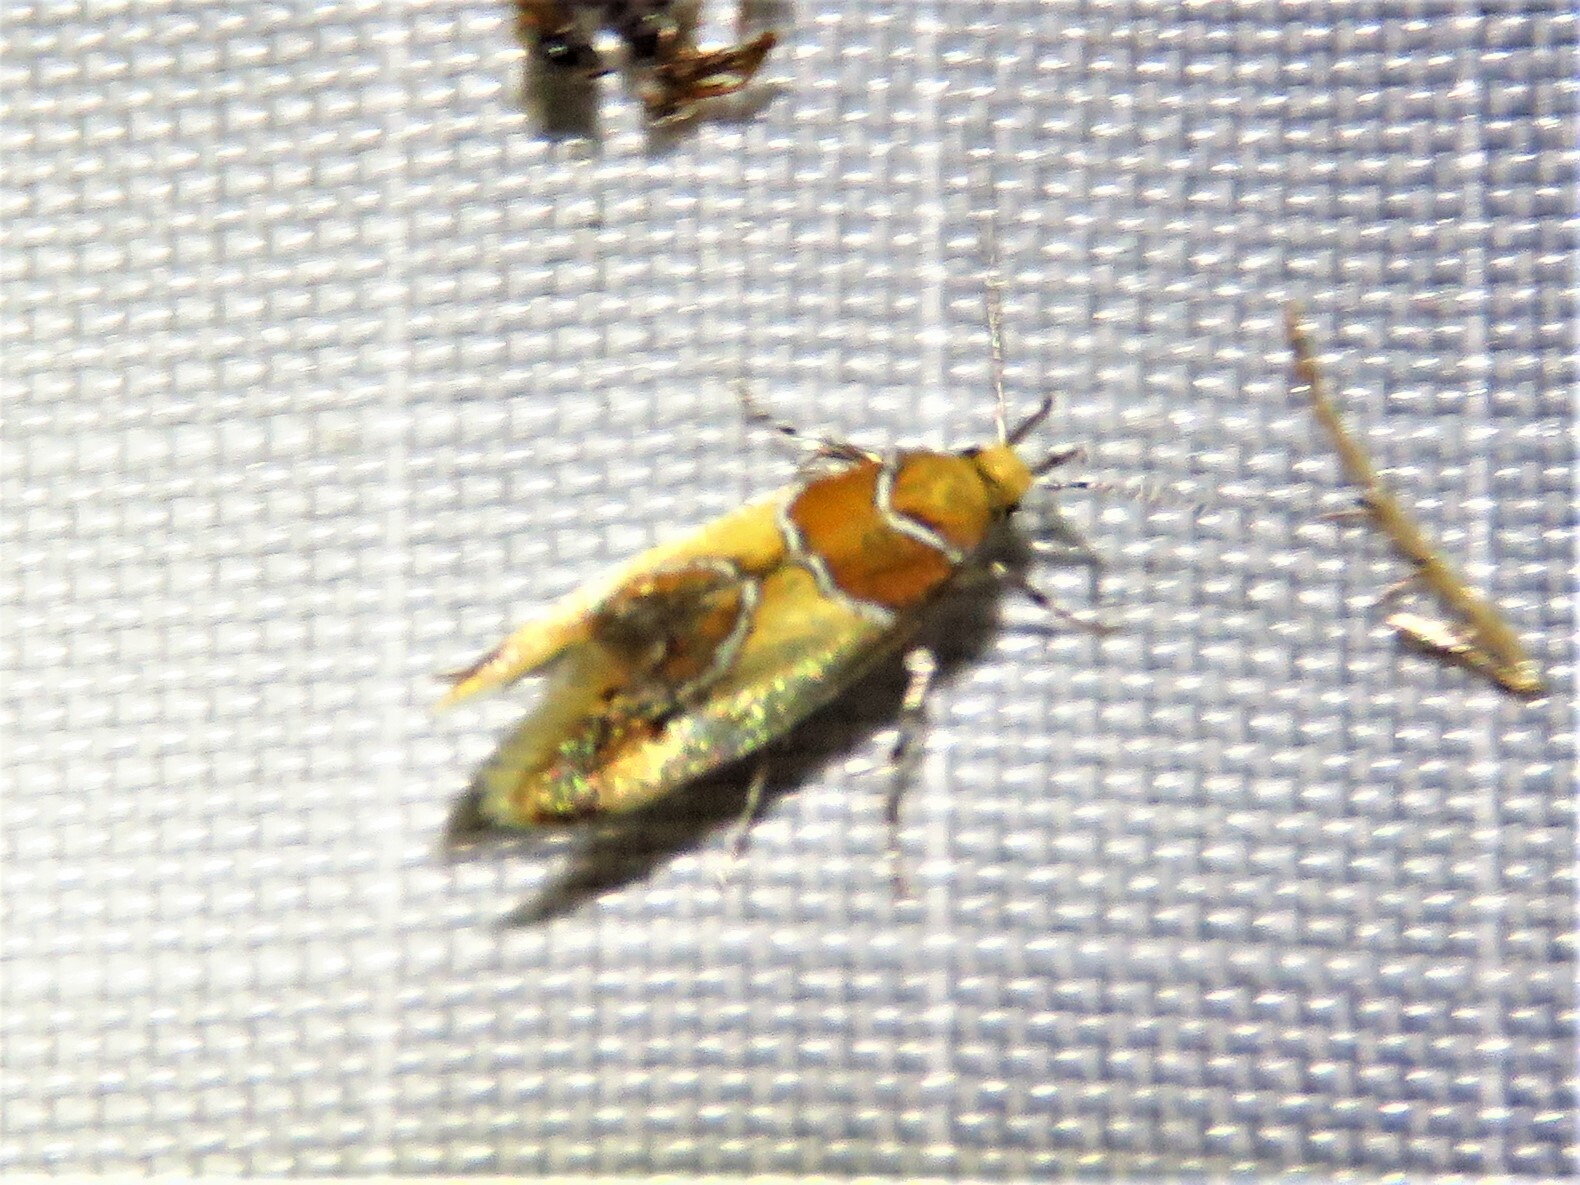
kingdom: Animalia
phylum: Arthropoda
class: Insecta
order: Lepidoptera
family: Oecophoridae
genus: Callima
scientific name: Callima argenticinctella
